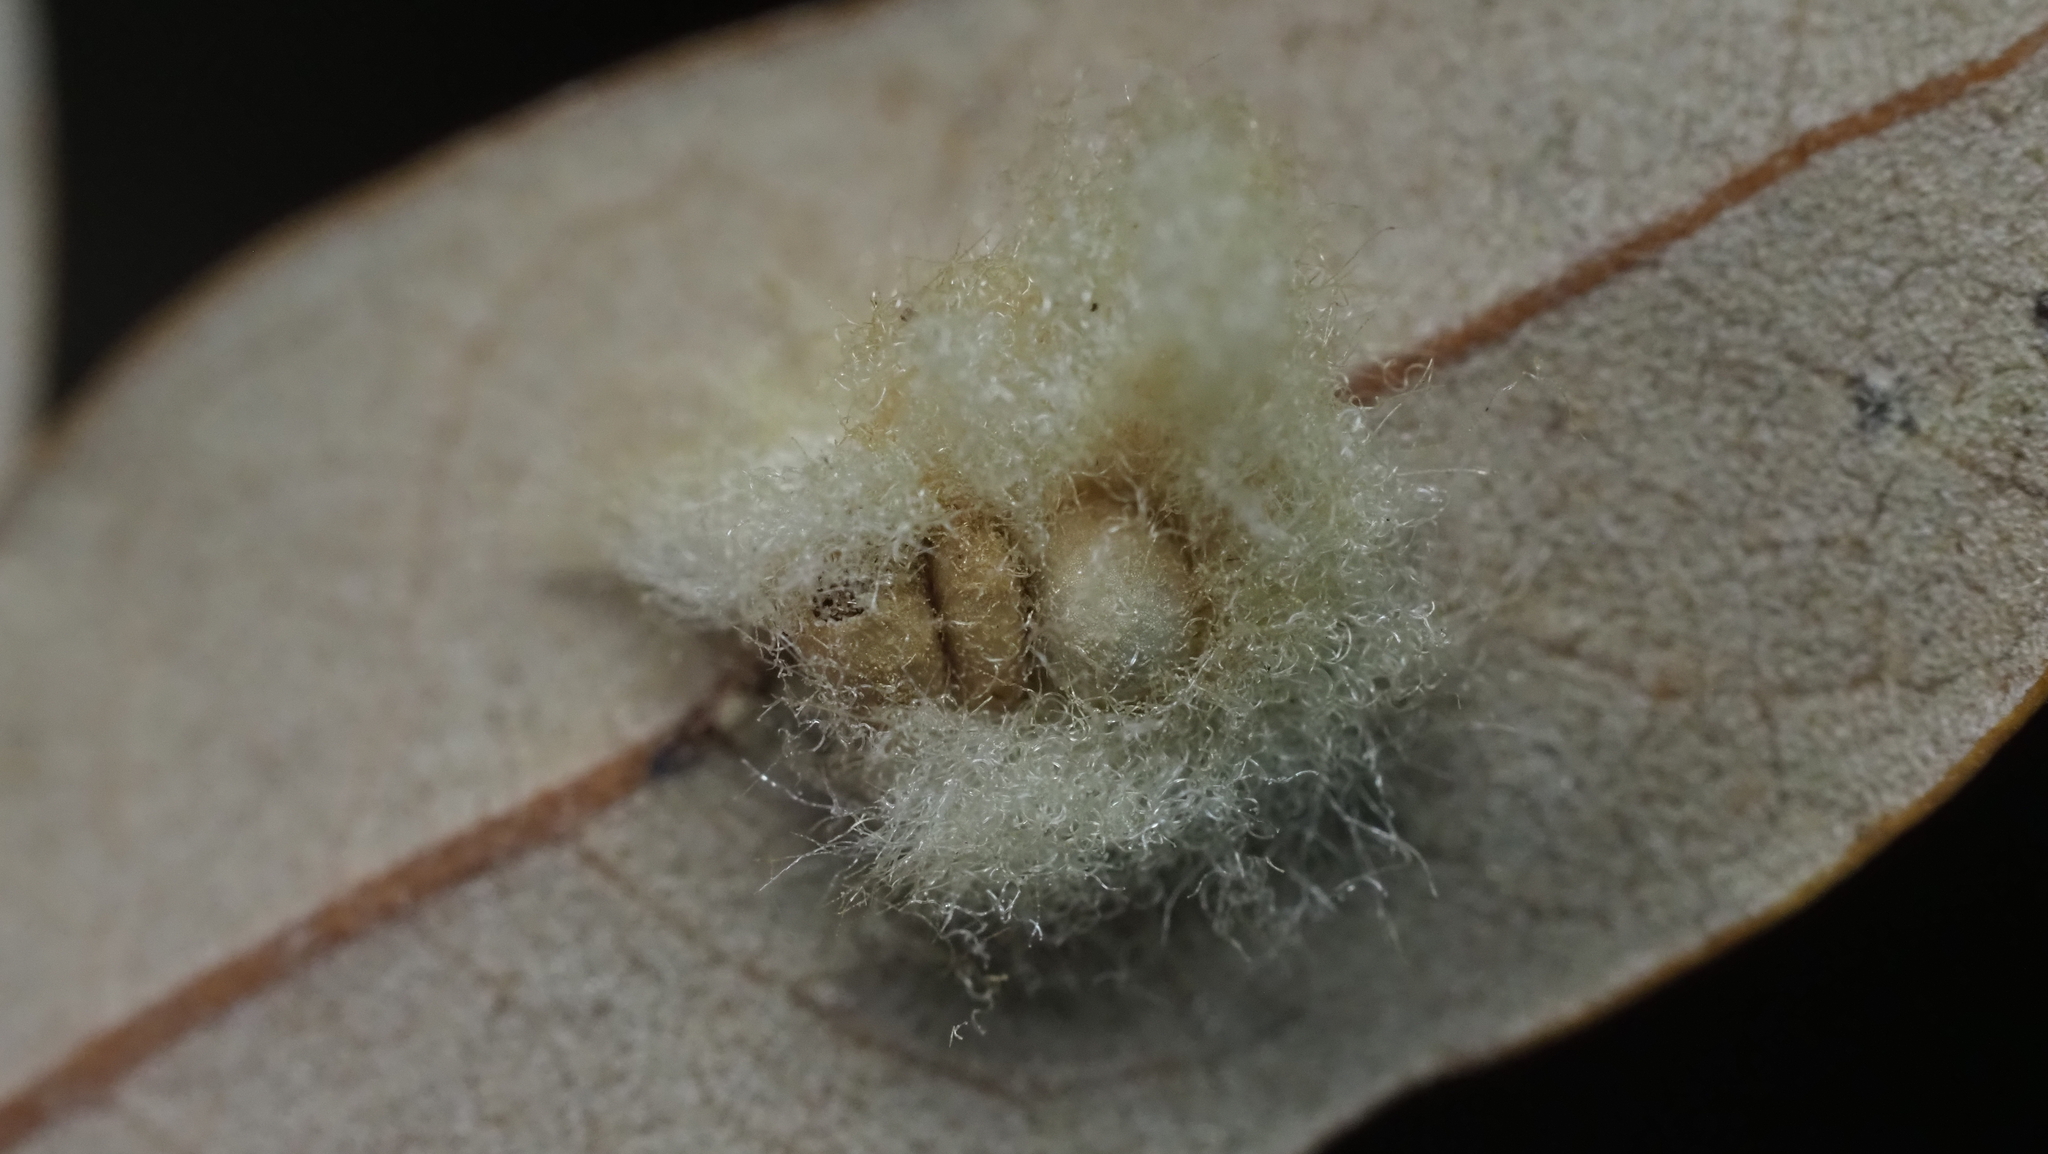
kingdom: Animalia
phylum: Arthropoda
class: Insecta
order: Hymenoptera
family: Cynipidae
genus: Andricus
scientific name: Andricus Druon quercuslanigerum
